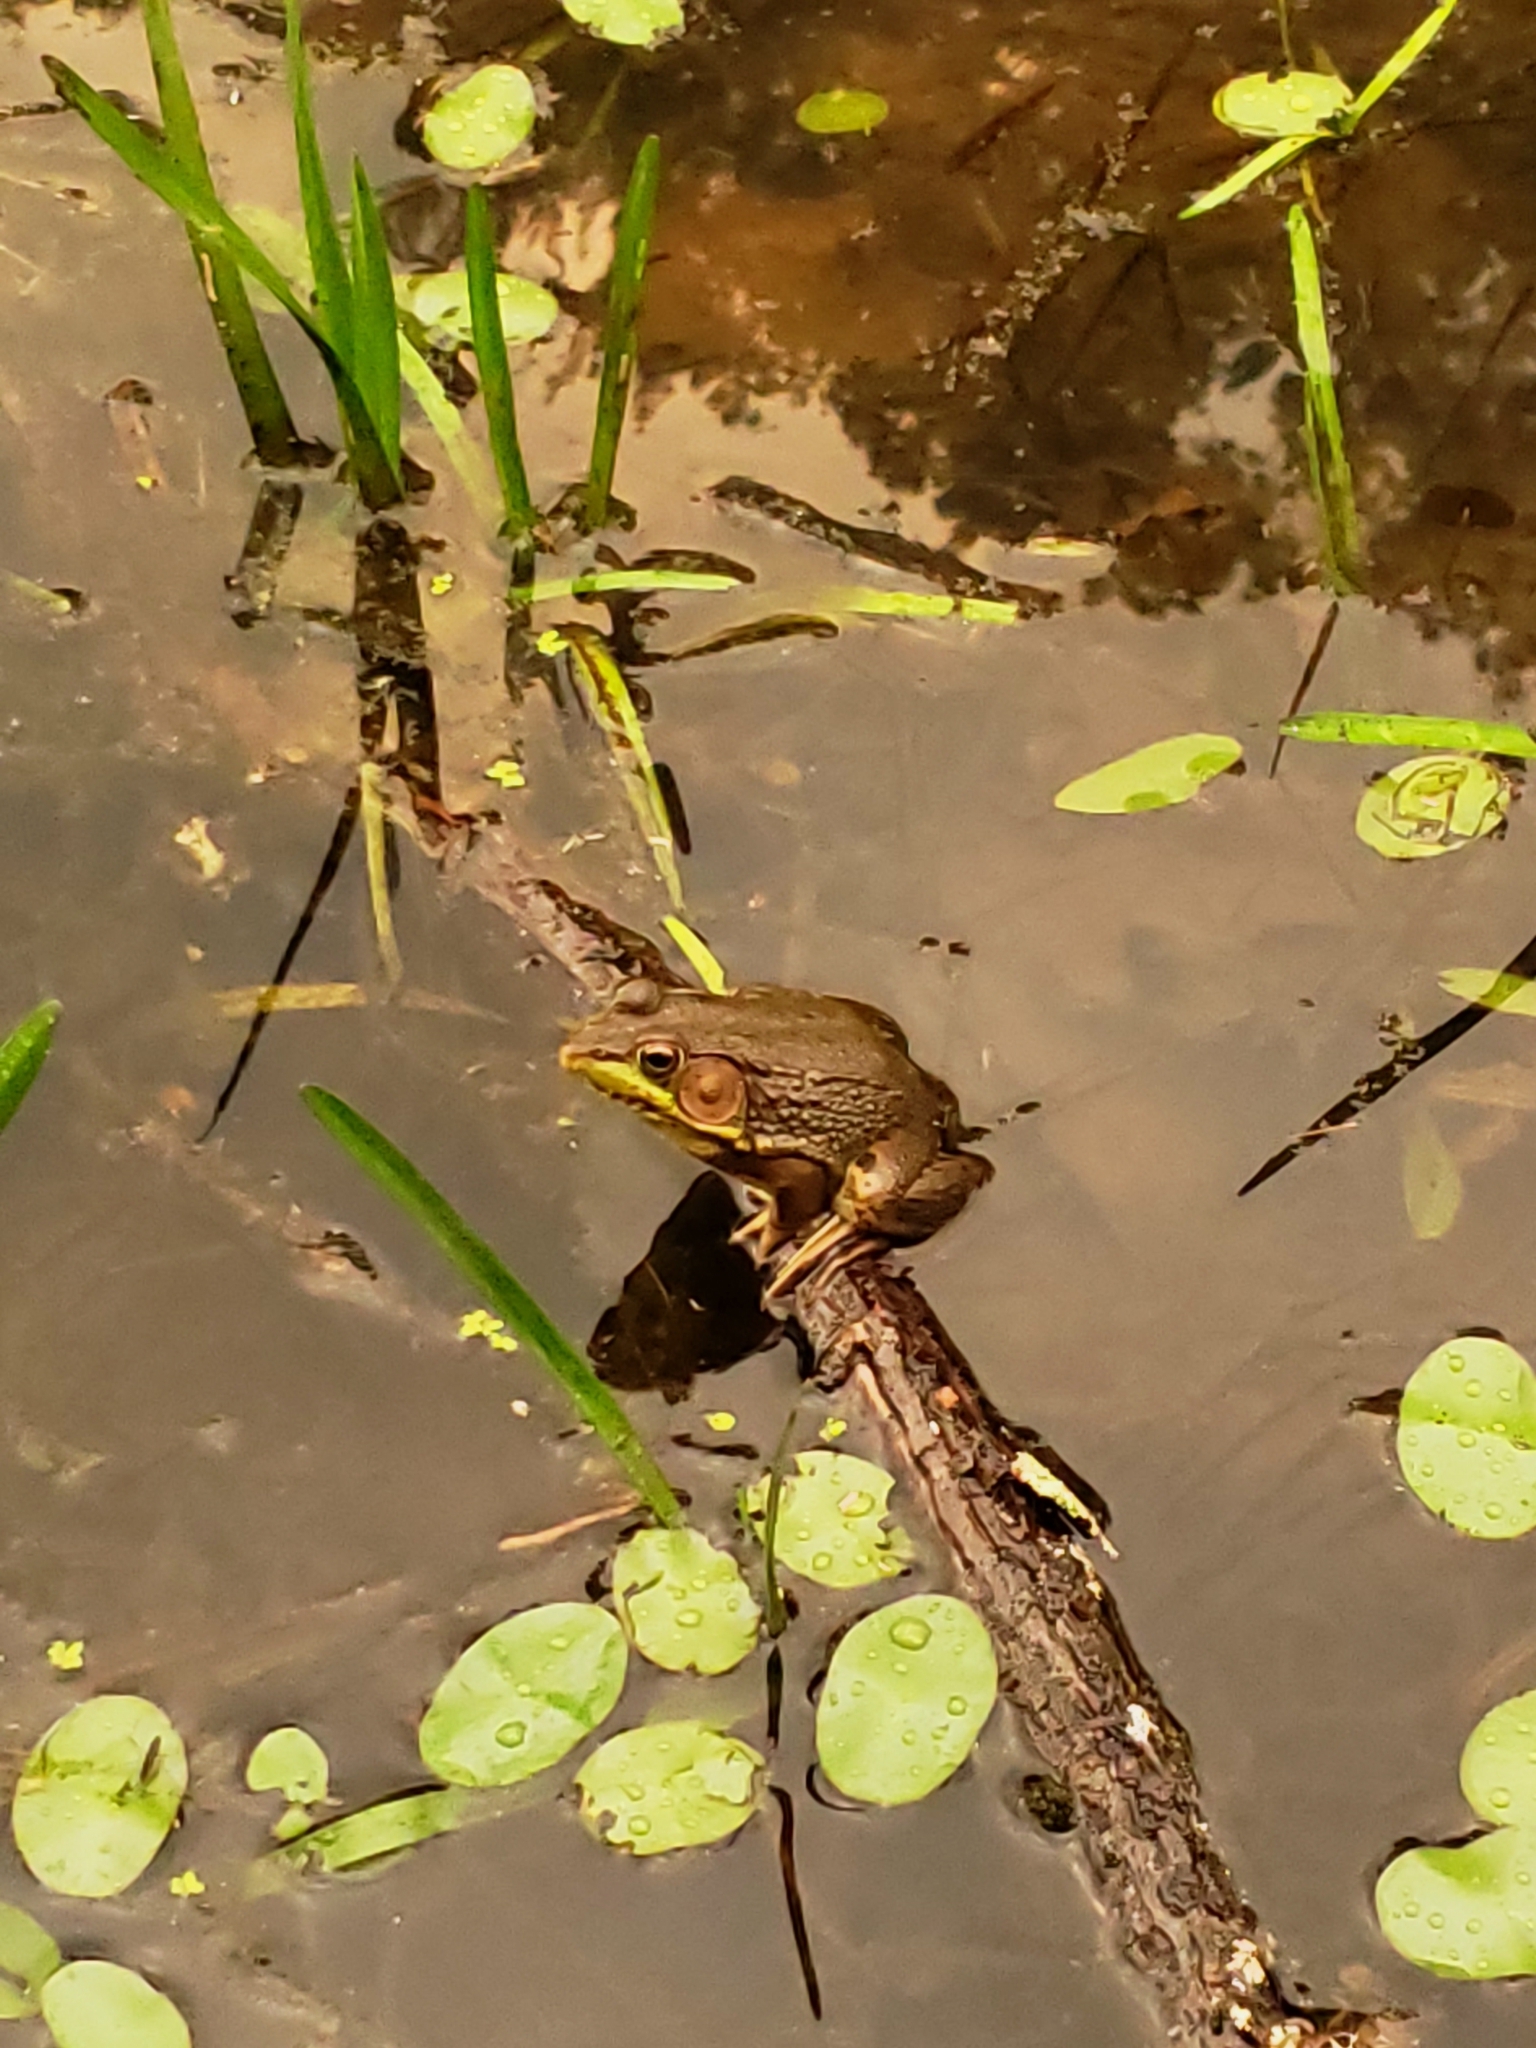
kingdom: Animalia
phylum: Chordata
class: Amphibia
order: Anura
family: Ranidae
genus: Lithobates
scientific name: Lithobates clamitans
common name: Green frog
